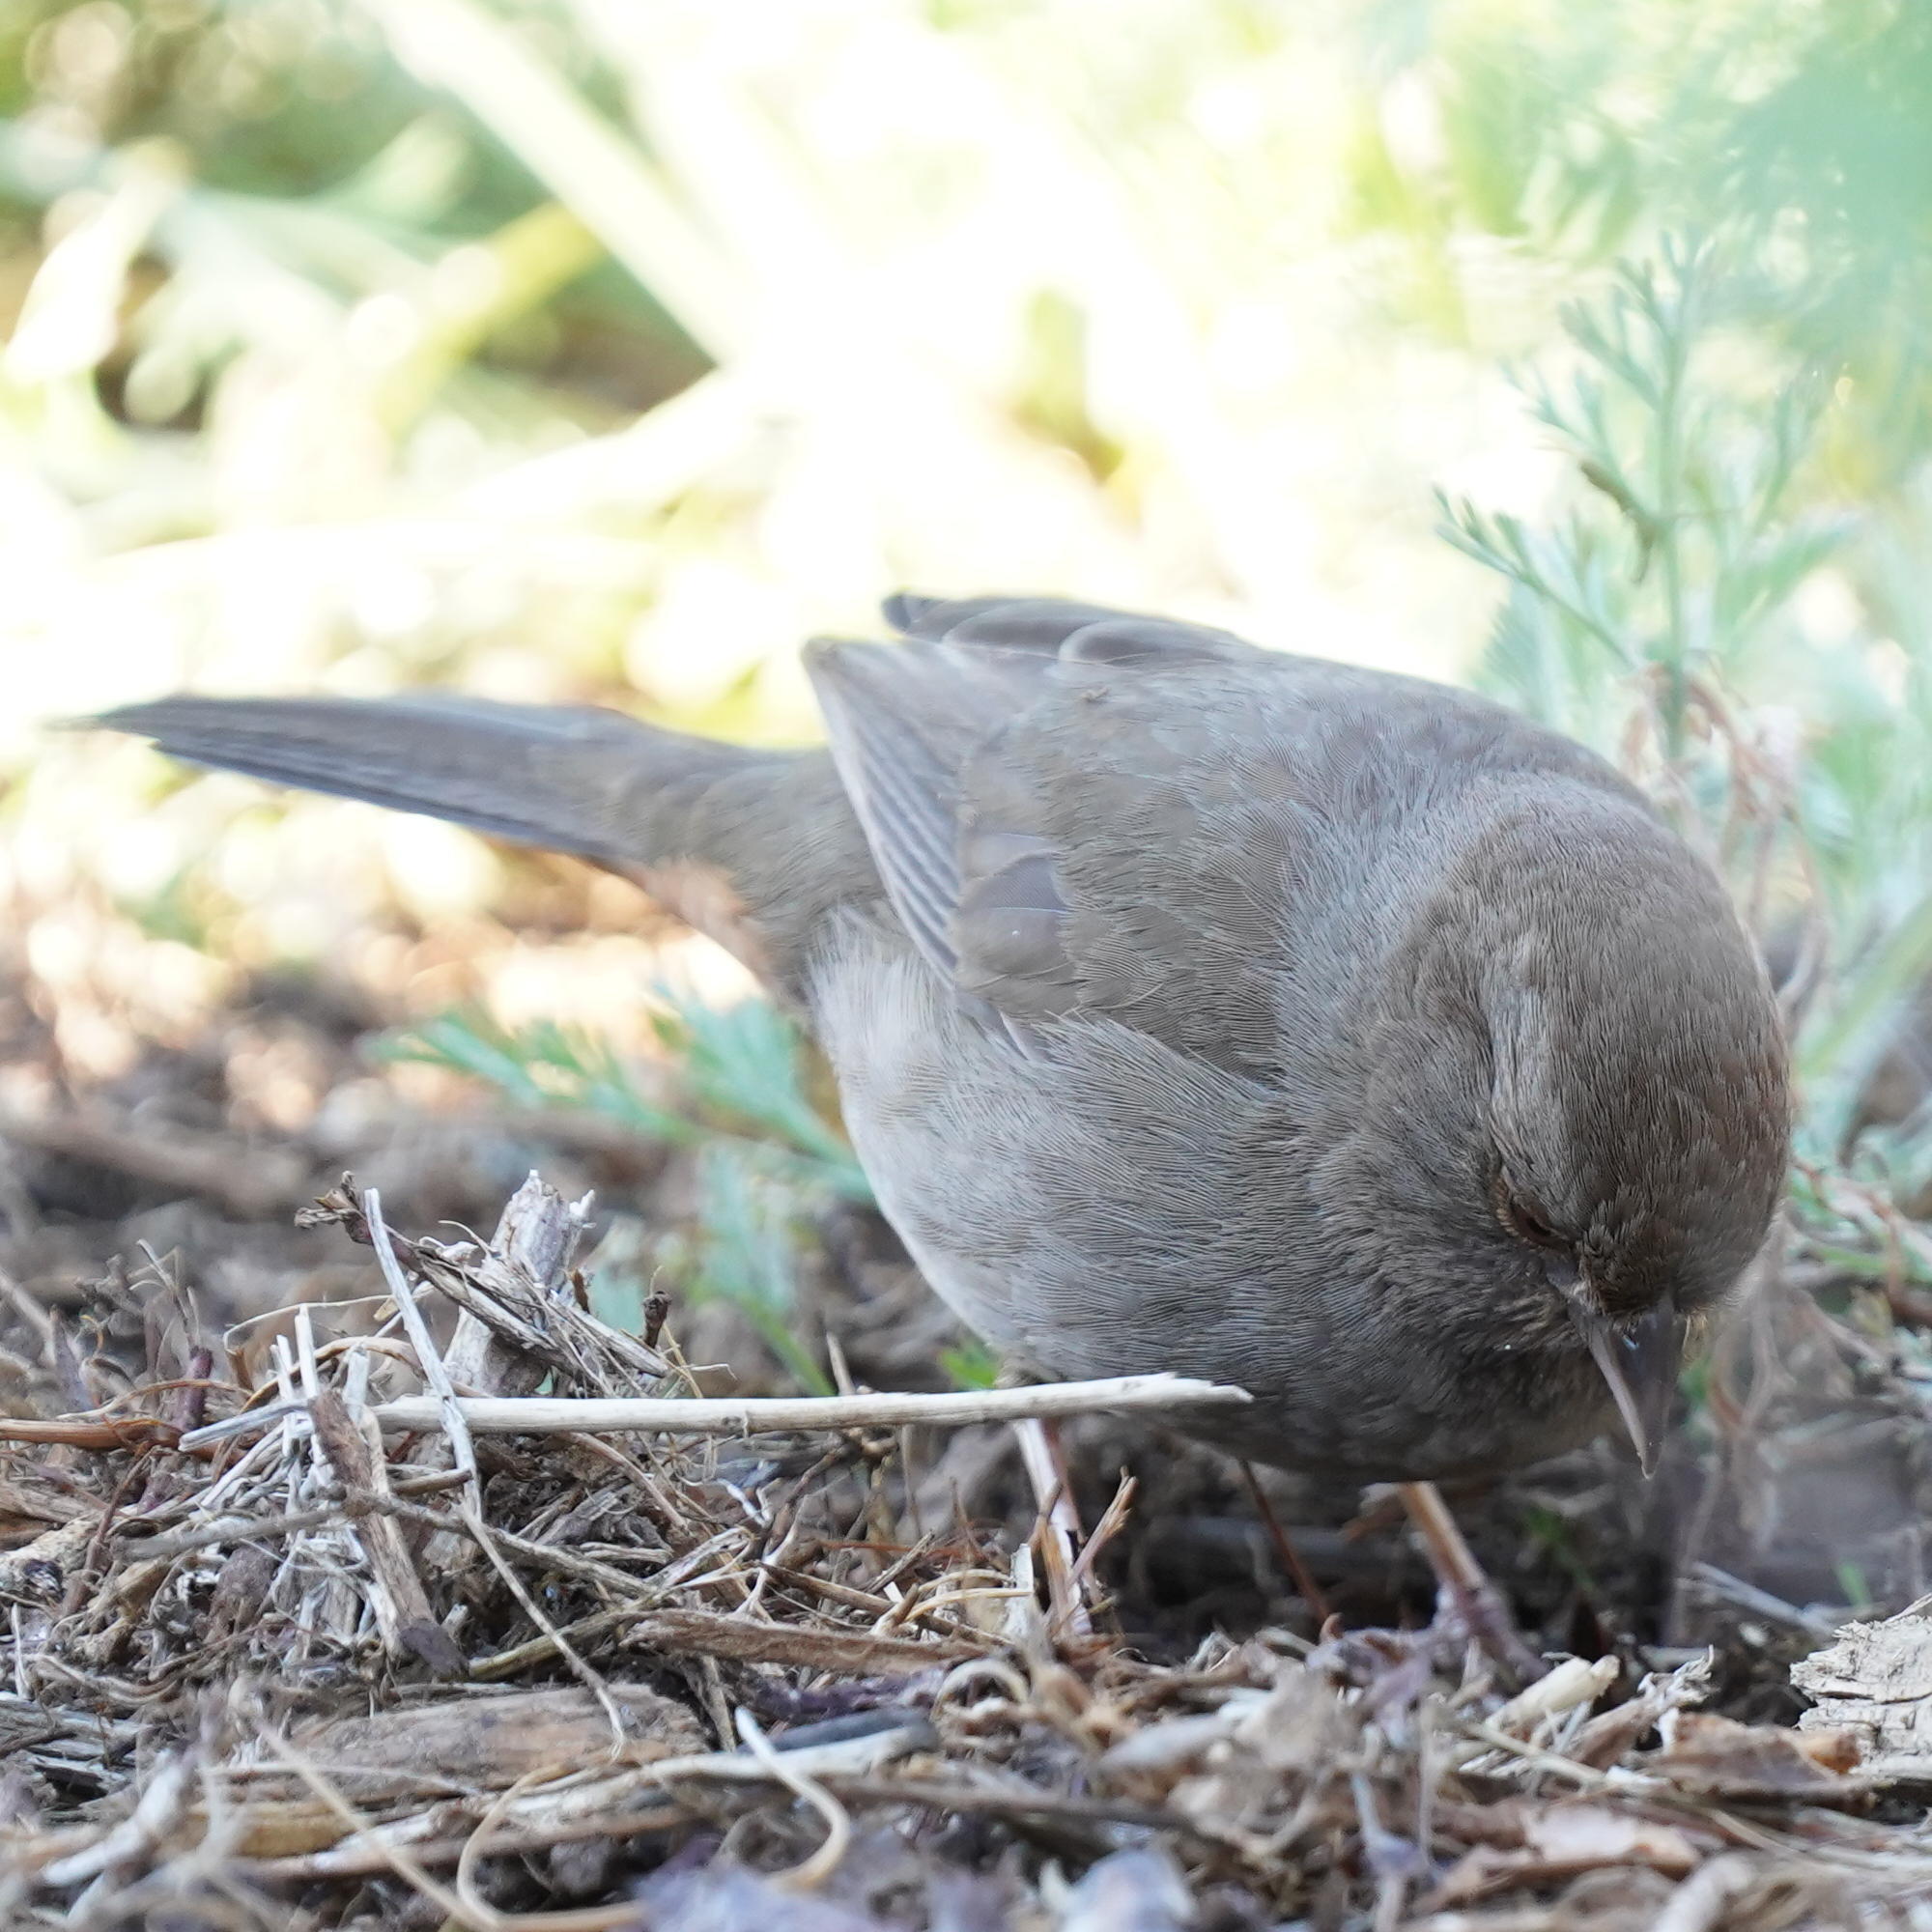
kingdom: Animalia
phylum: Chordata
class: Aves
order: Passeriformes
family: Passerellidae
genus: Melozone
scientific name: Melozone crissalis
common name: California towhee
